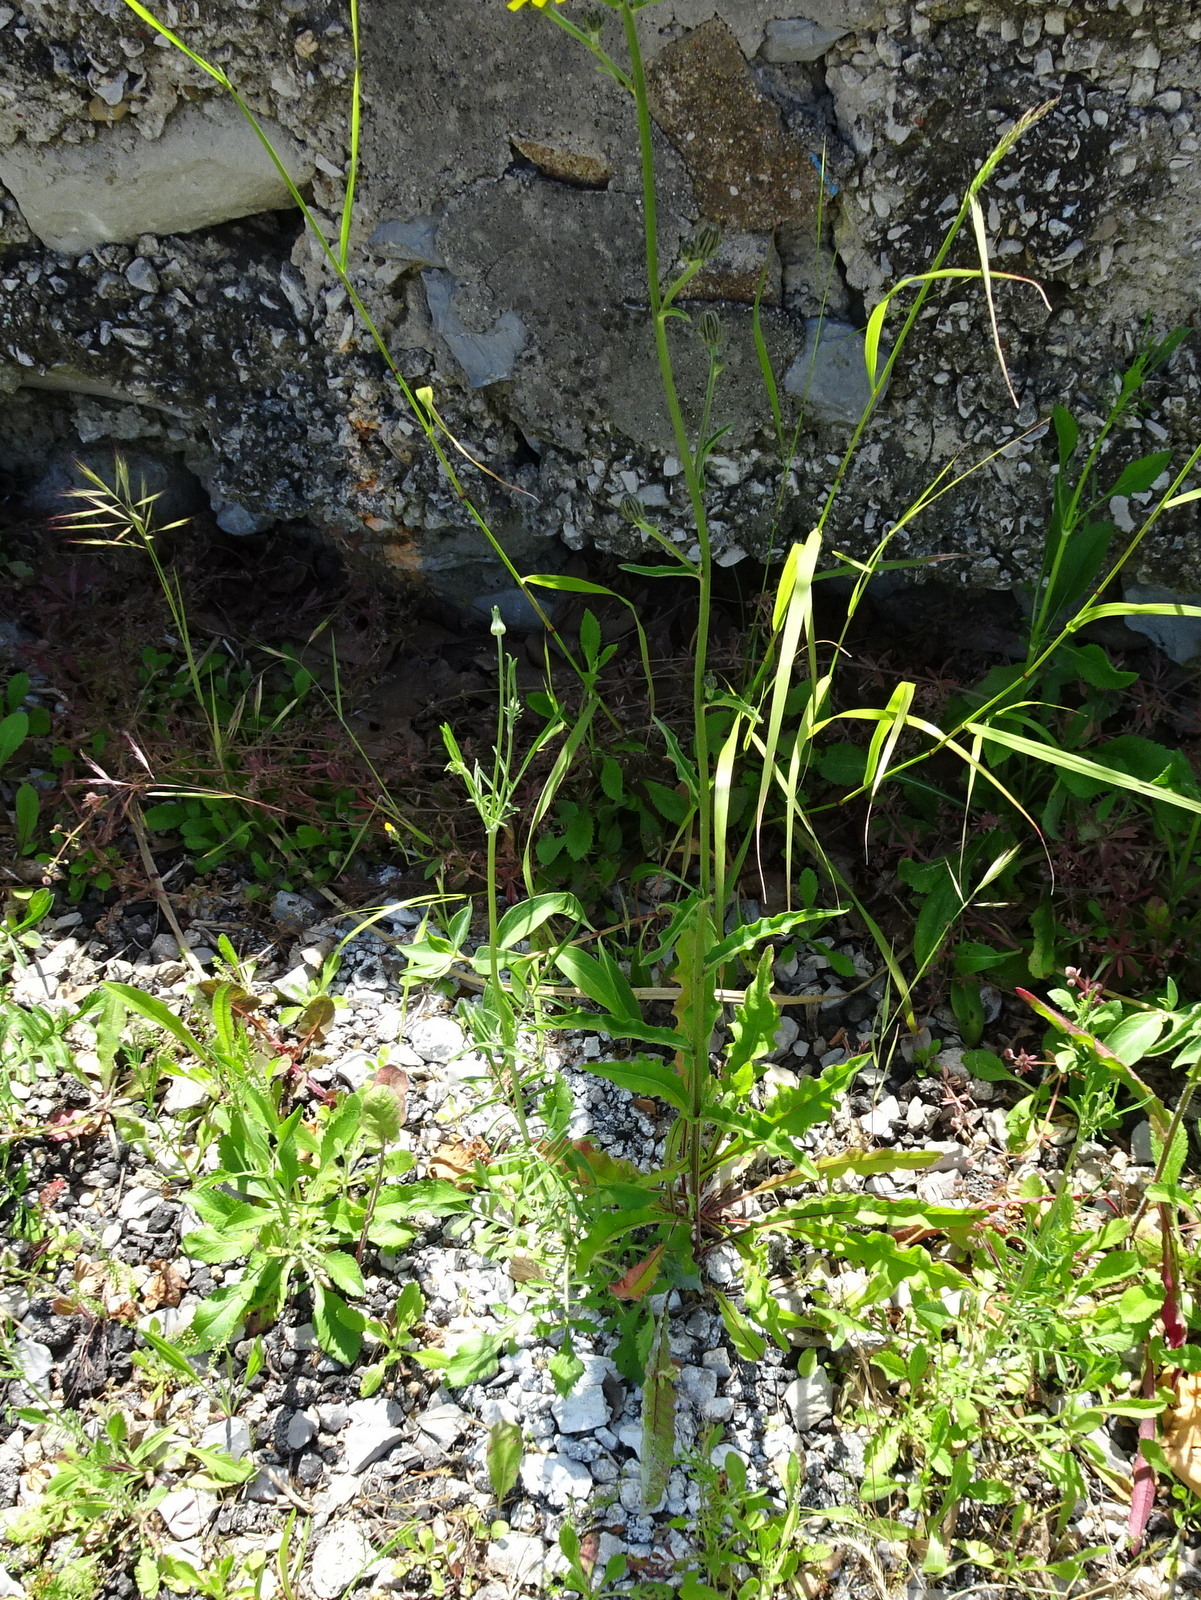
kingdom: Plantae
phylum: Tracheophyta
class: Magnoliopsida
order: Asterales
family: Asteraceae
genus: Picris
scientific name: Picris hieracioides
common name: Hawkweed oxtongue
